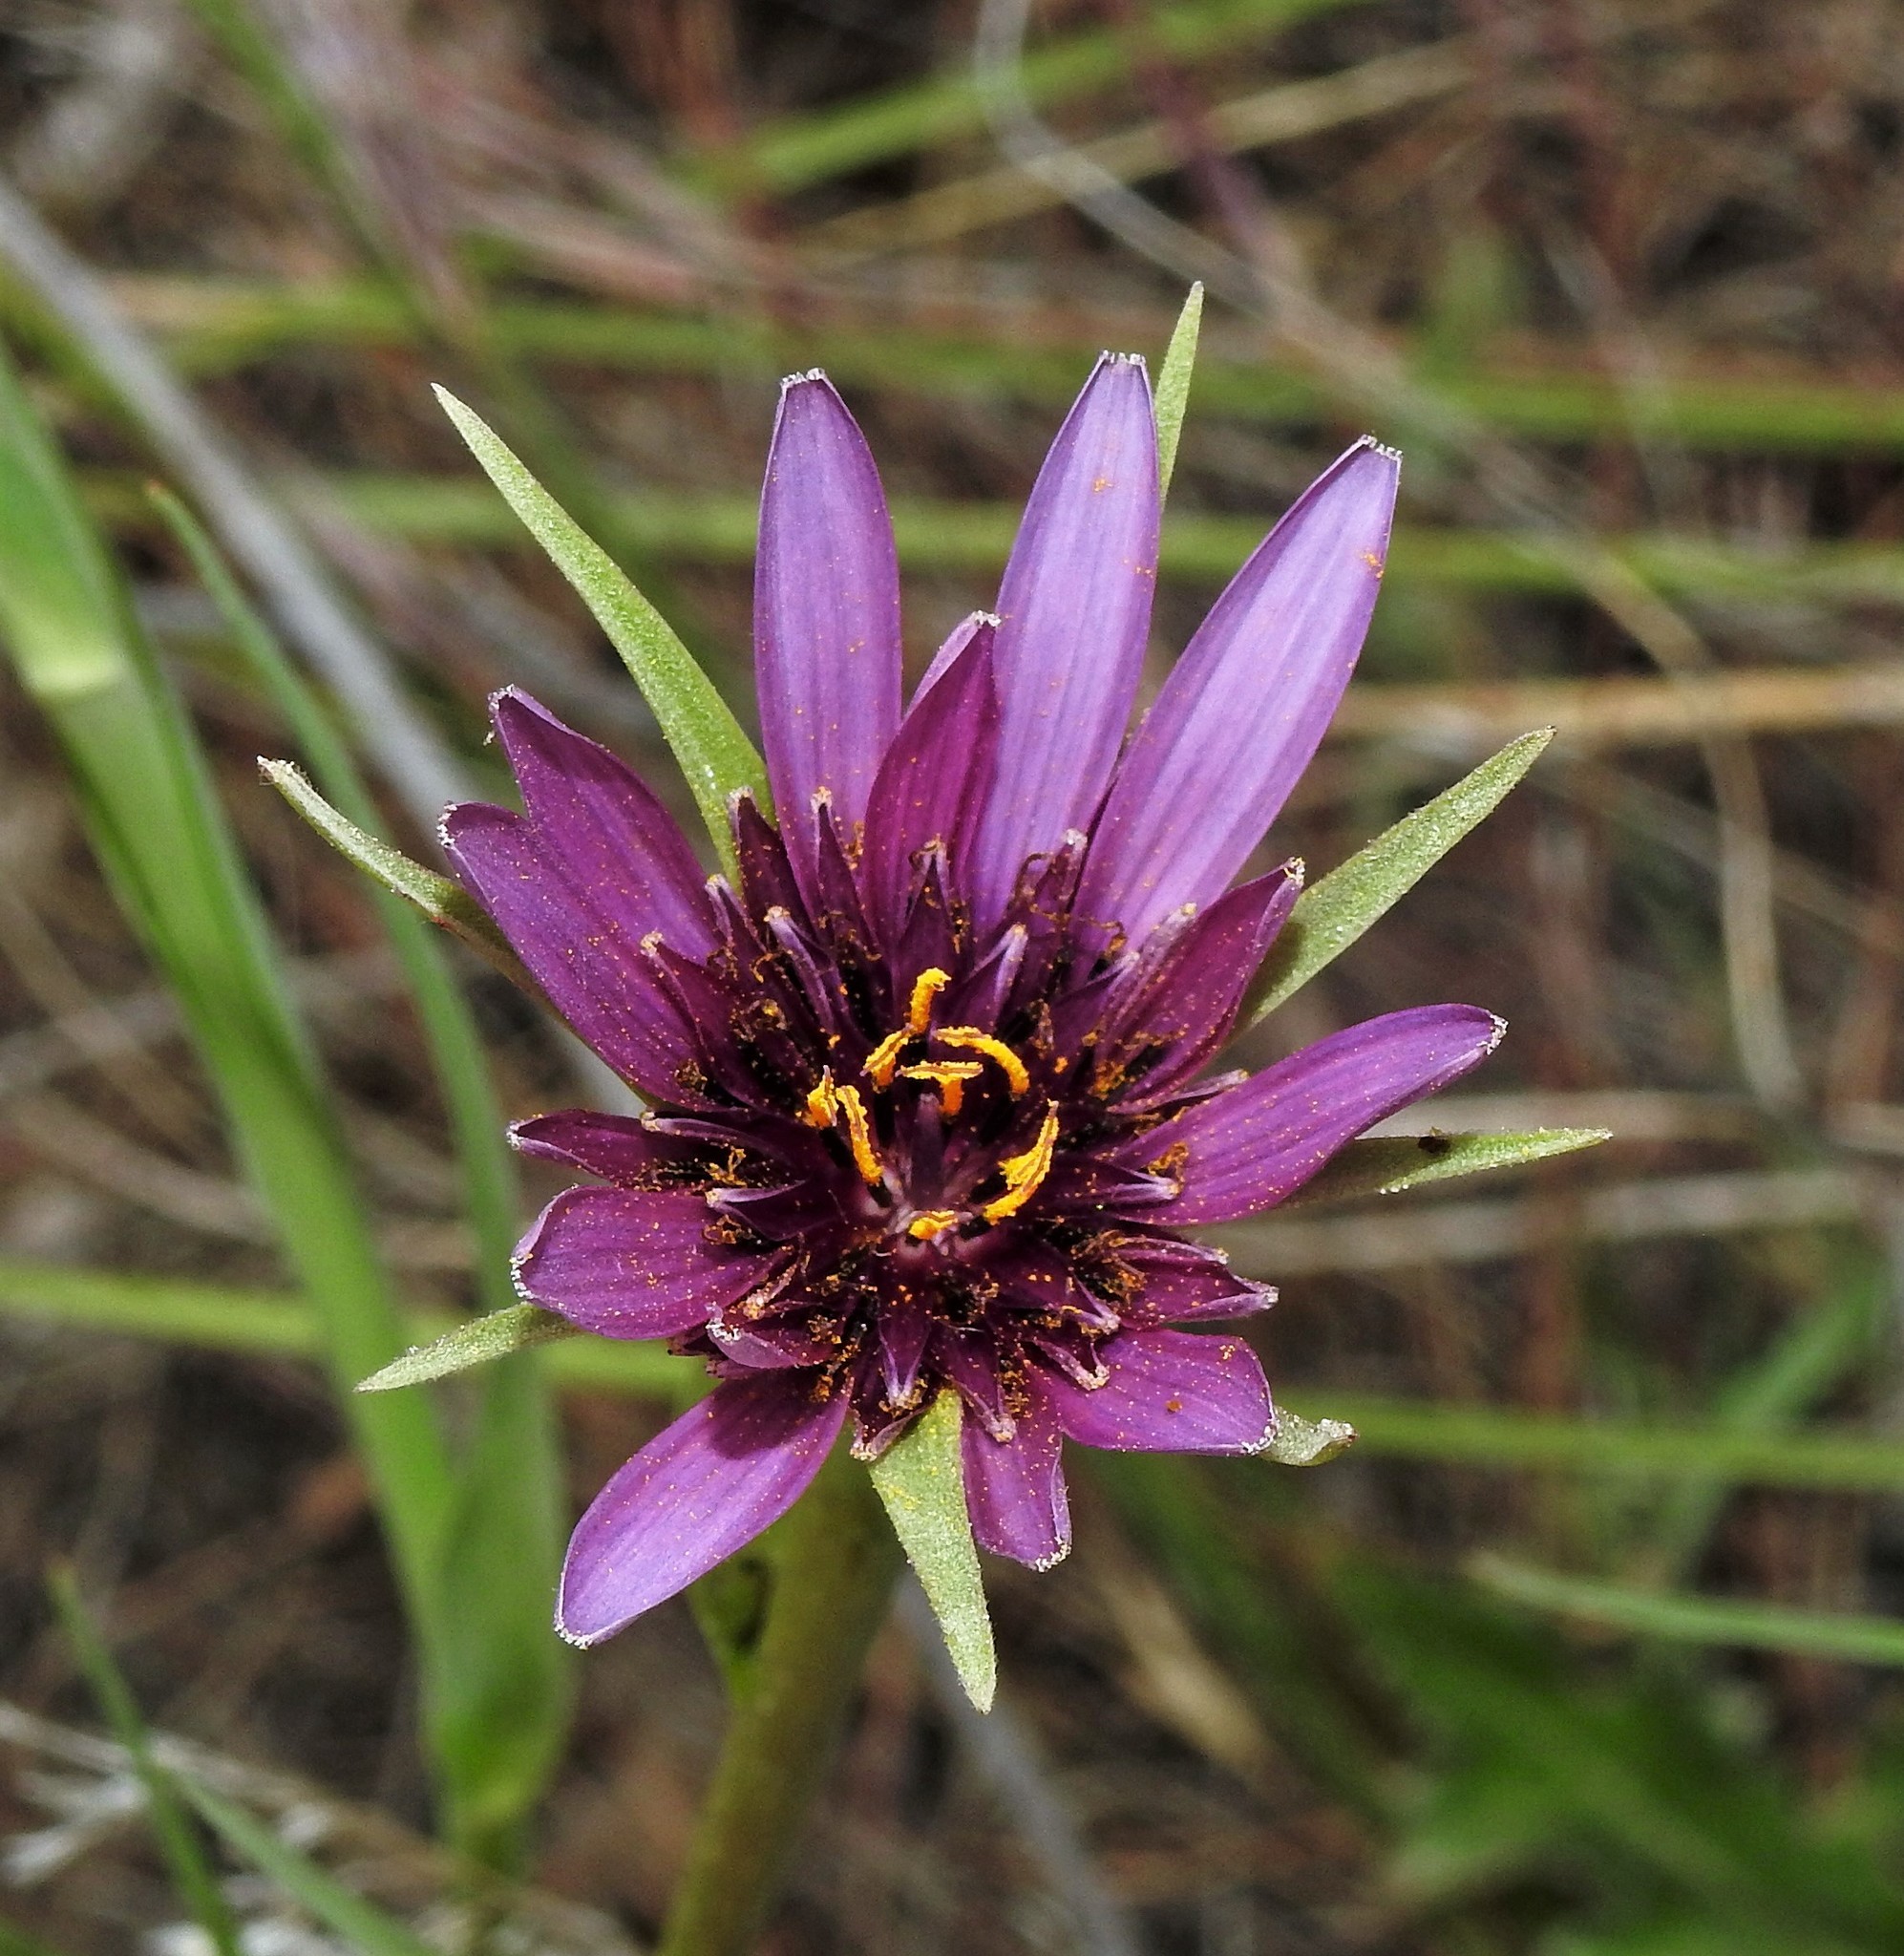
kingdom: Plantae
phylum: Tracheophyta
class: Magnoliopsida
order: Asterales
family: Asteraceae
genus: Tragopogon
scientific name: Tragopogon porrifolius
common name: Salsify
